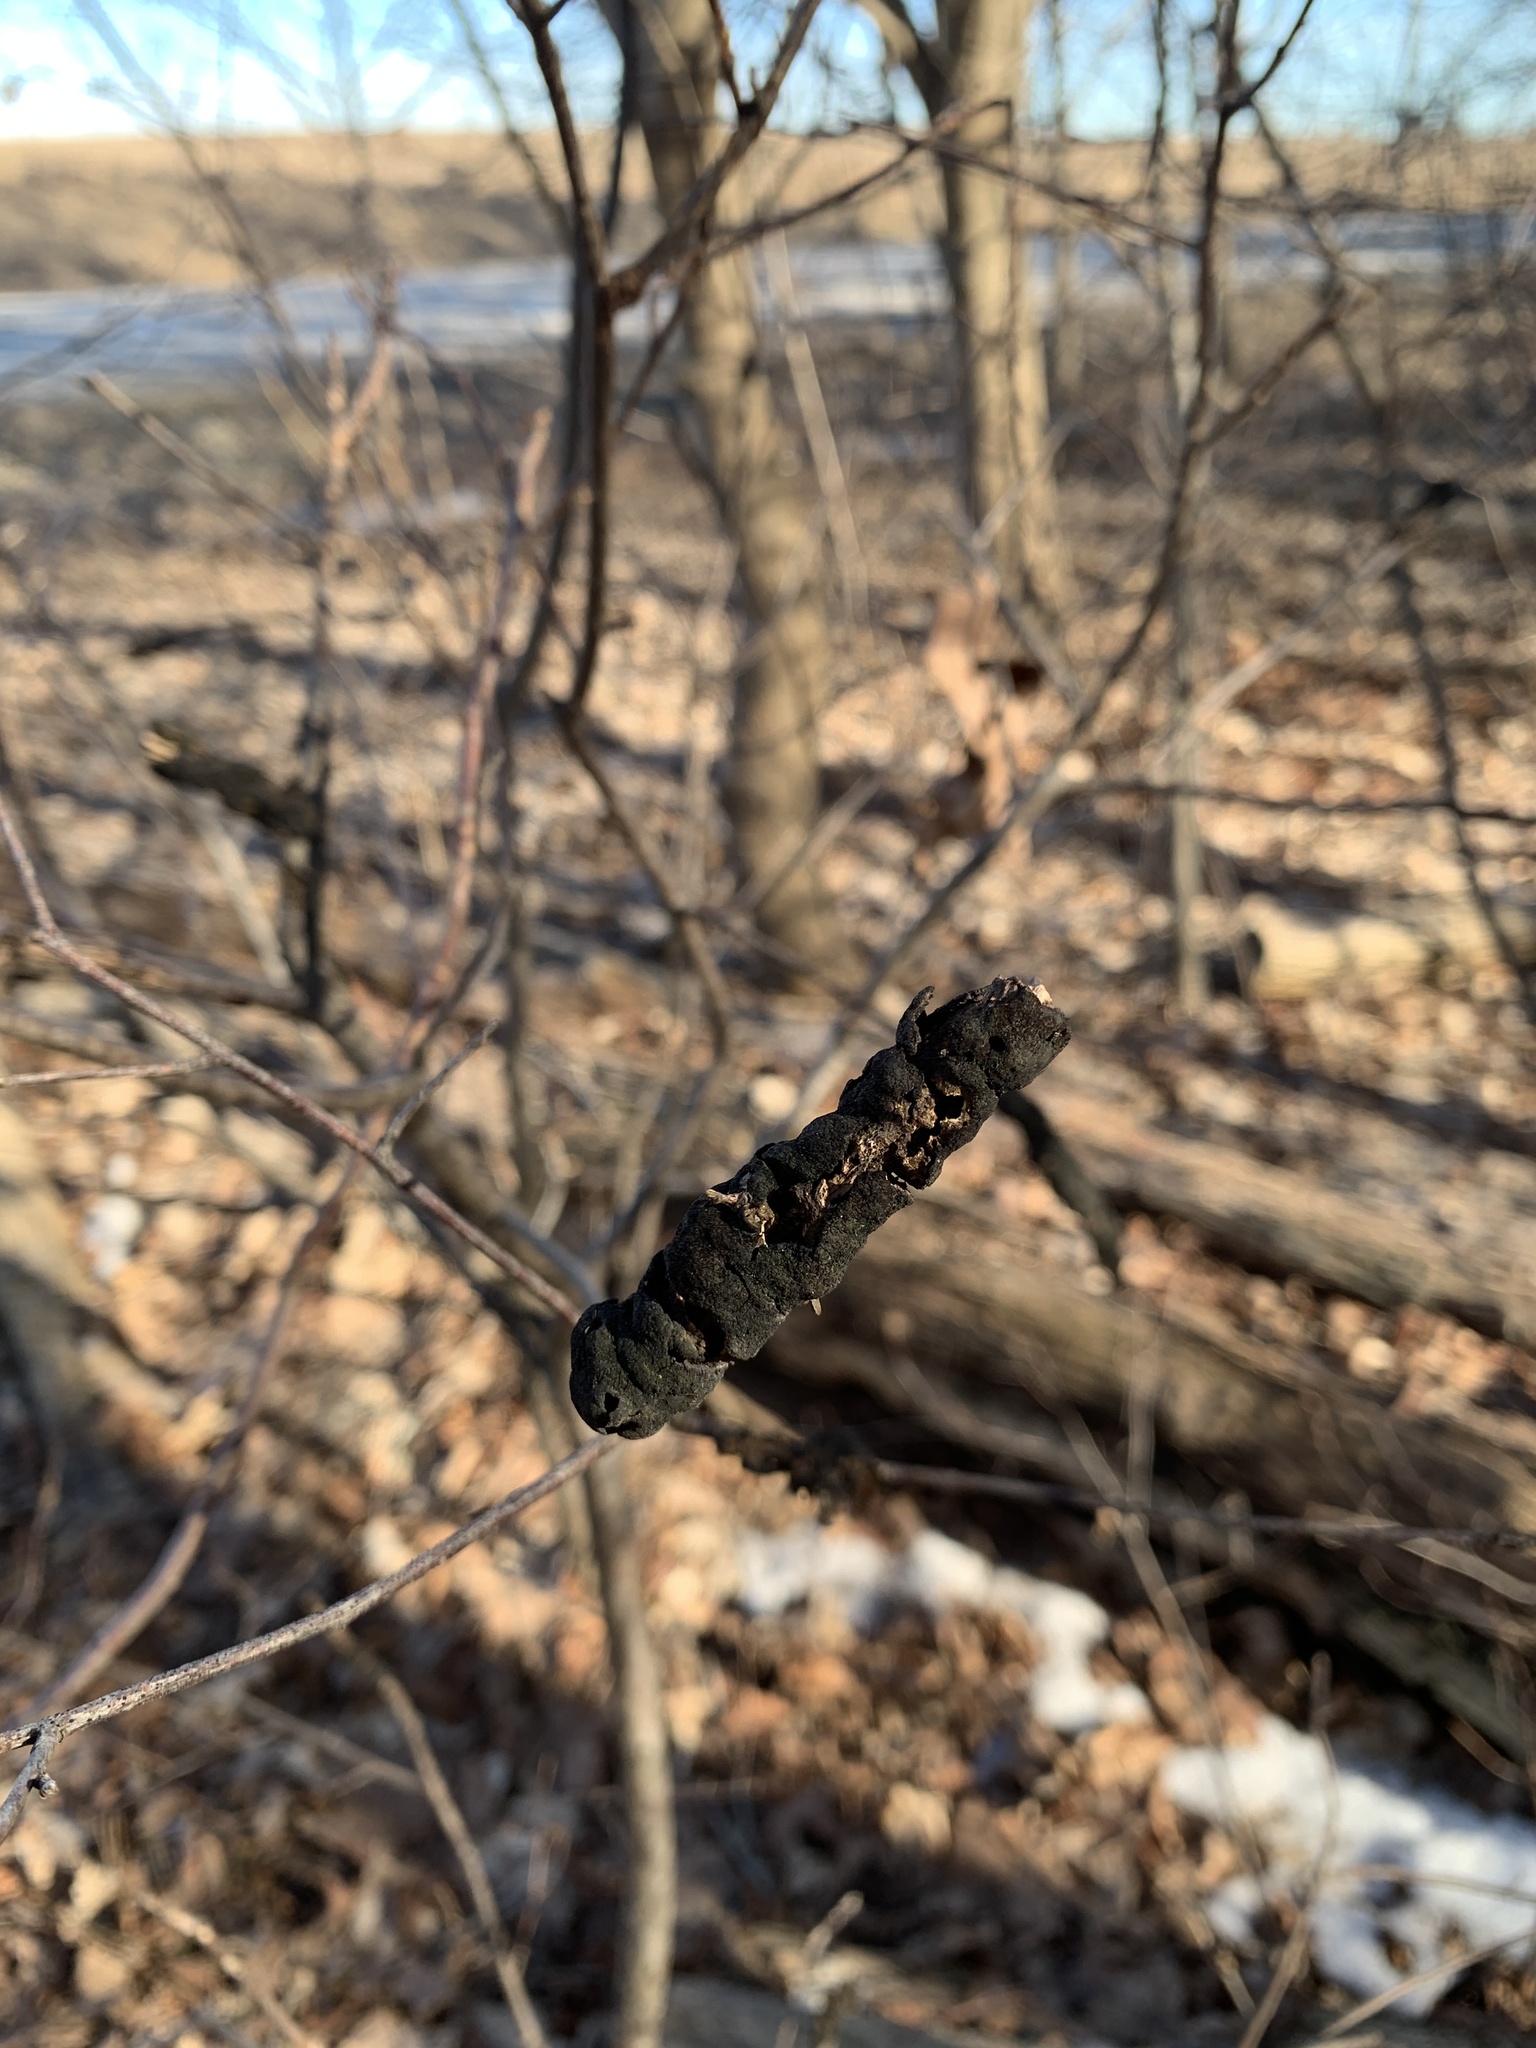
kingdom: Fungi
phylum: Ascomycota
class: Dothideomycetes
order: Venturiales
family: Venturiaceae
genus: Apiosporina
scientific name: Apiosporina morbosa
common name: Black knot
